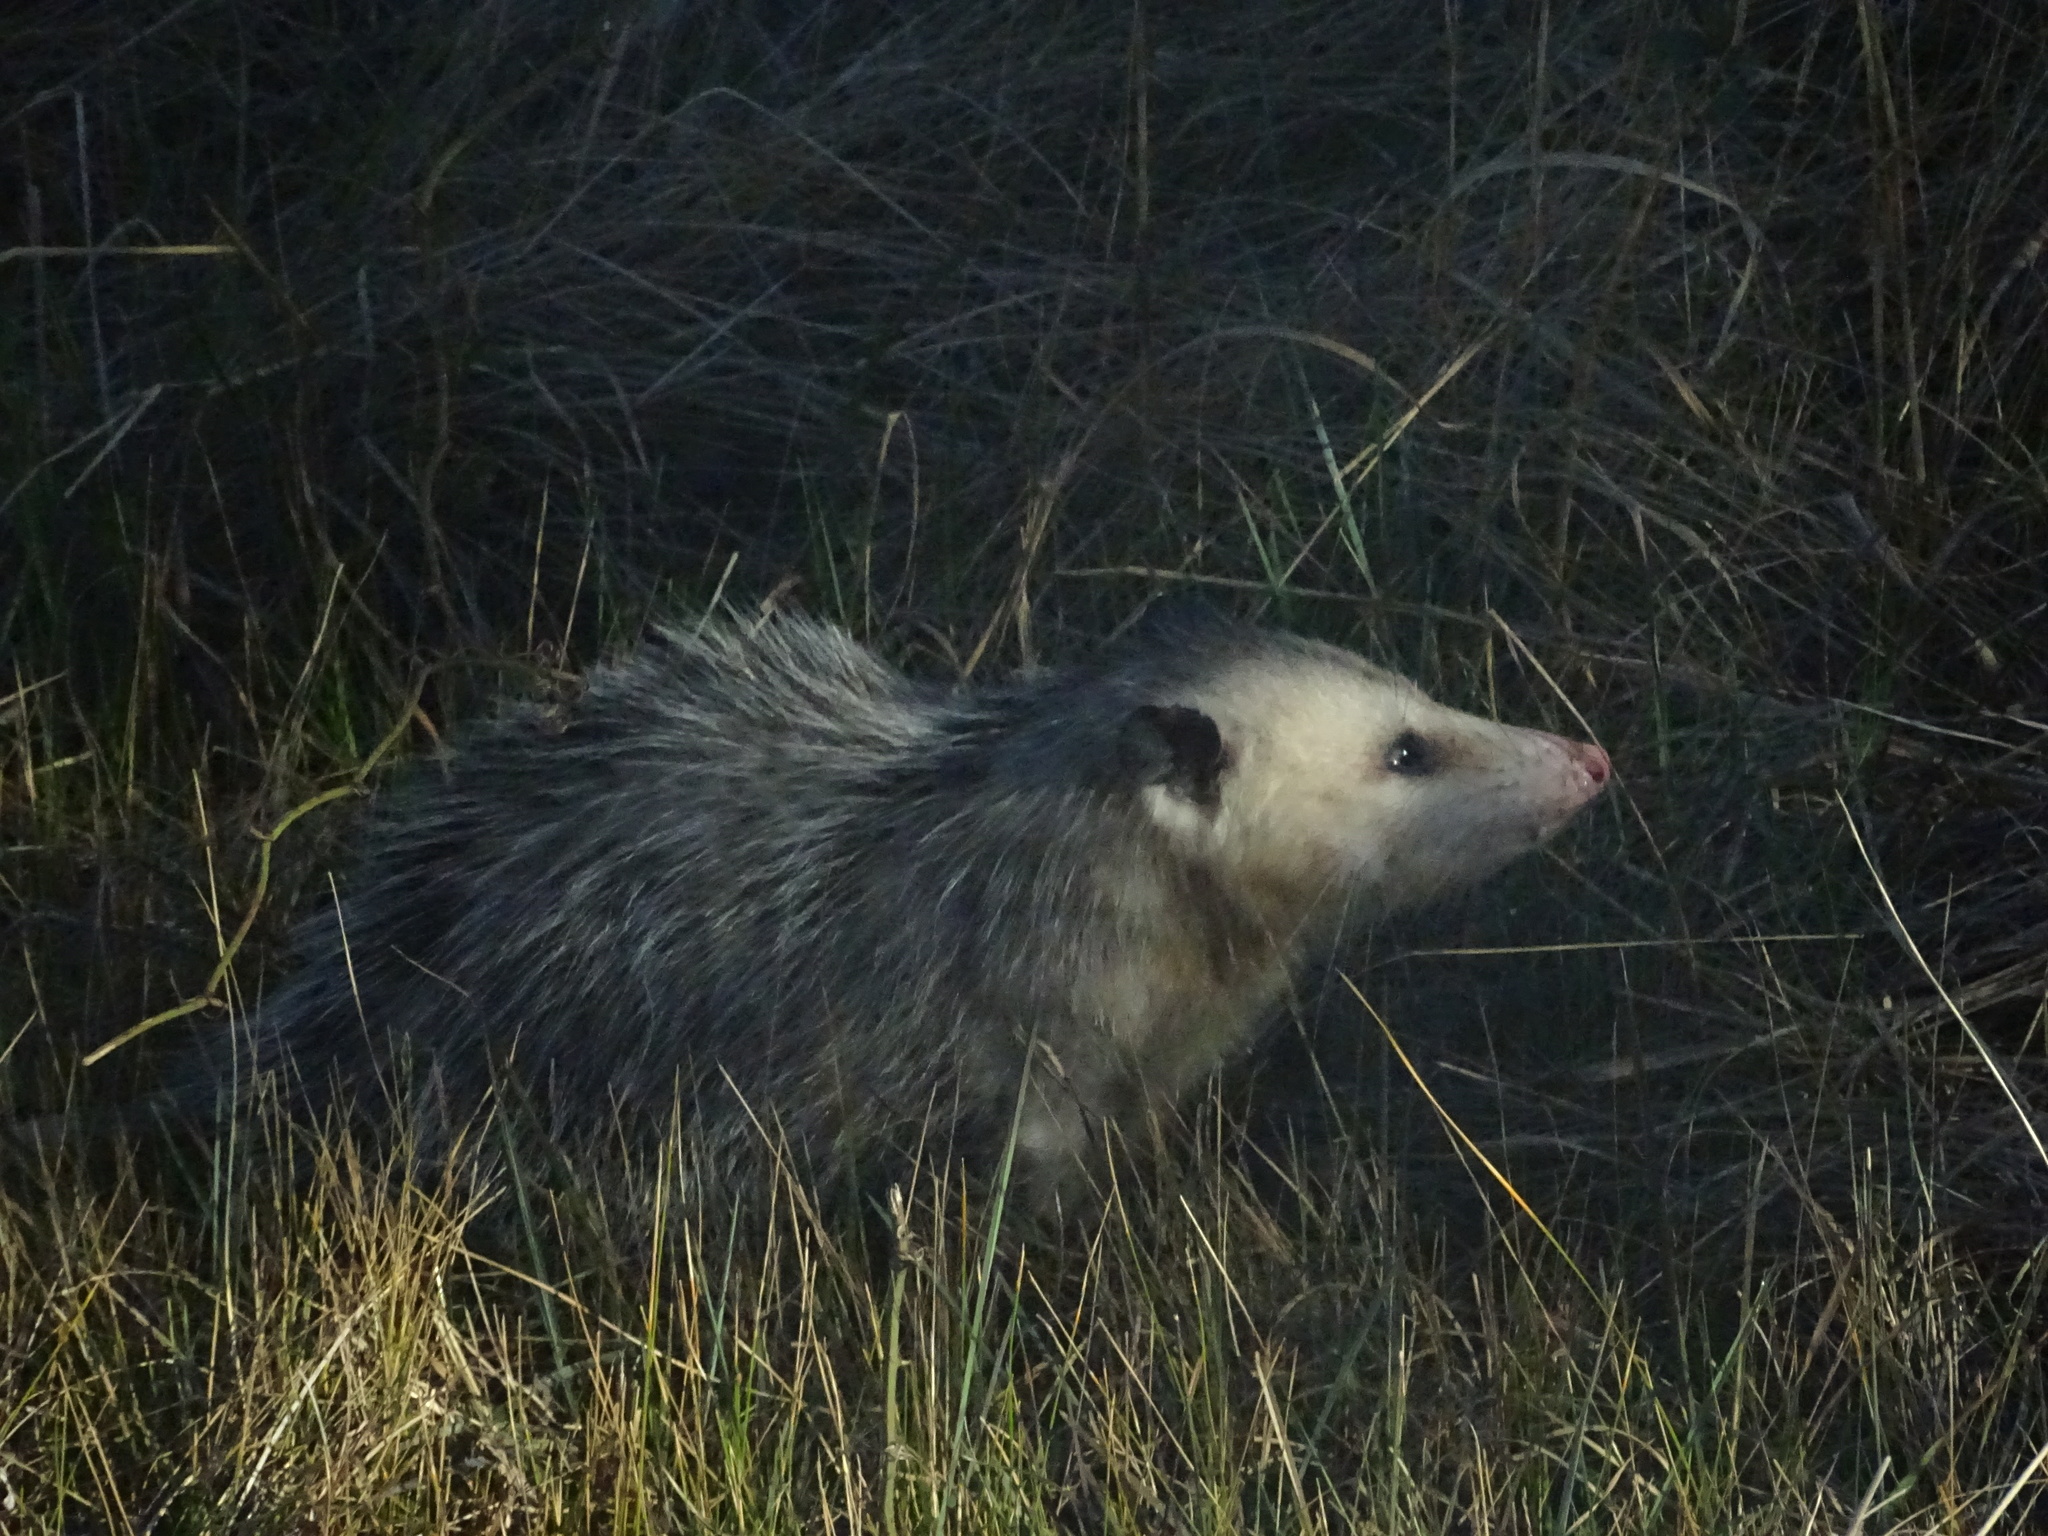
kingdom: Animalia
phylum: Chordata
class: Mammalia
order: Didelphimorphia
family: Didelphidae
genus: Didelphis
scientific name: Didelphis virginiana
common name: Virginia opossum
